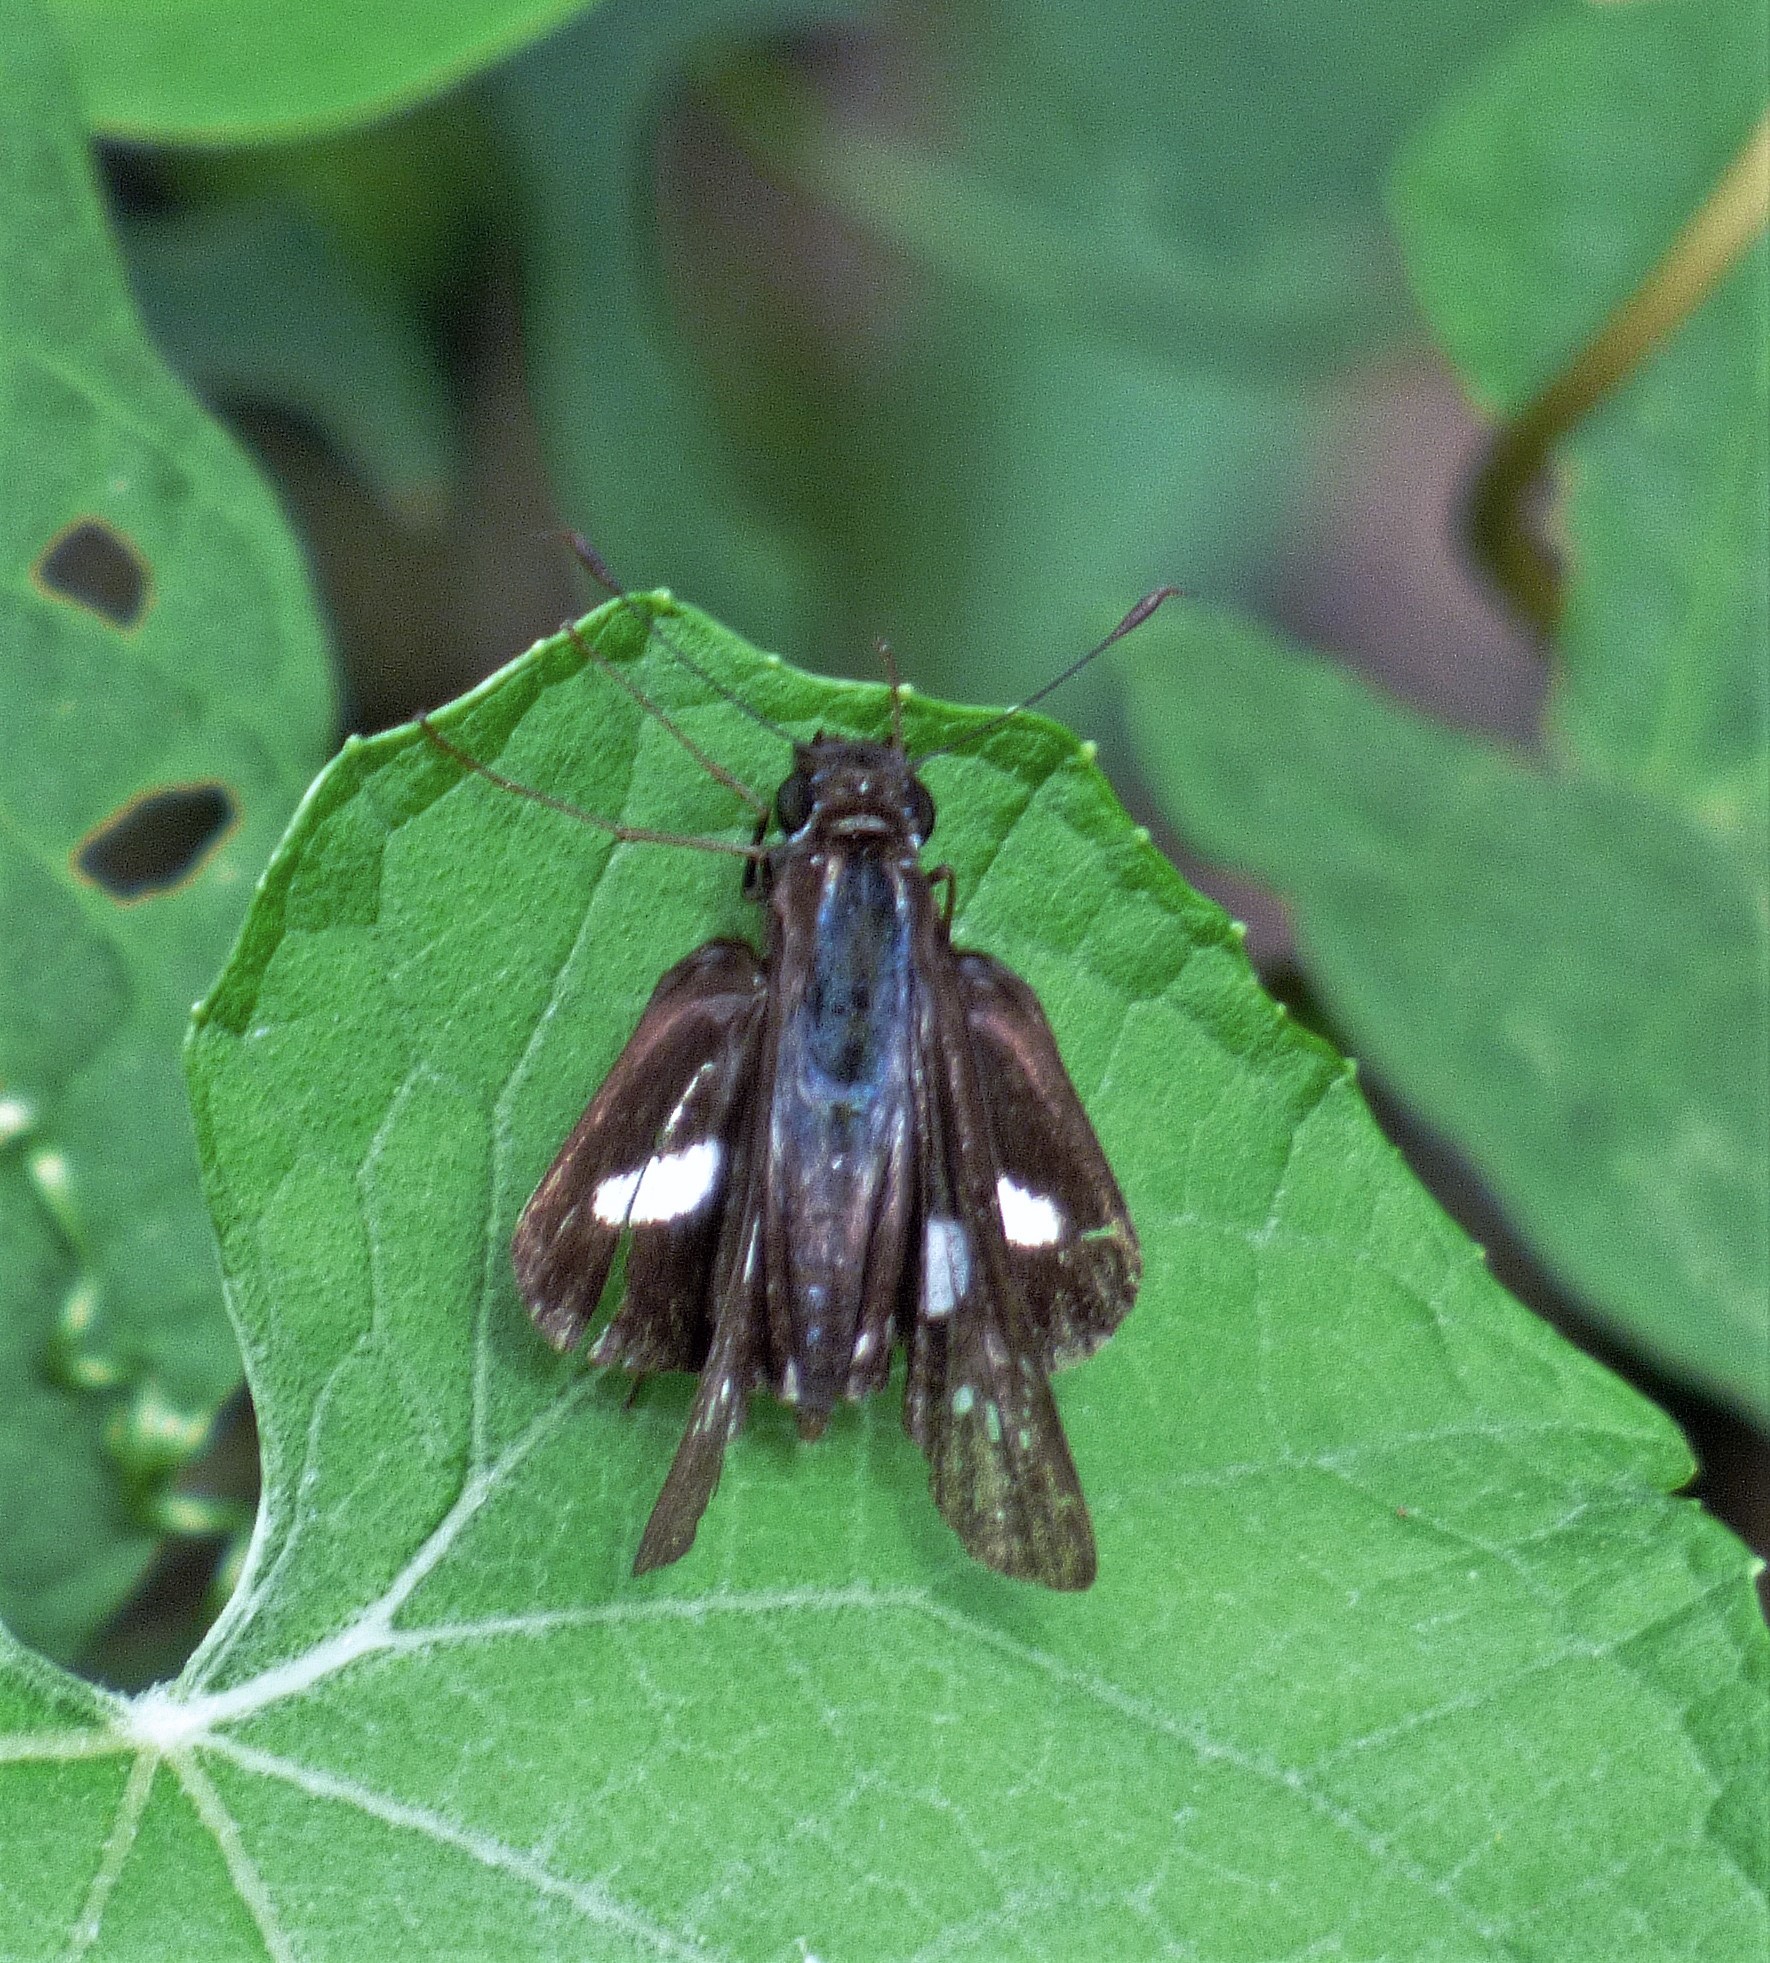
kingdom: Animalia
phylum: Arthropoda
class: Insecta
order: Lepidoptera
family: Hesperiidae
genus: Zenis
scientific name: Zenis jebus
